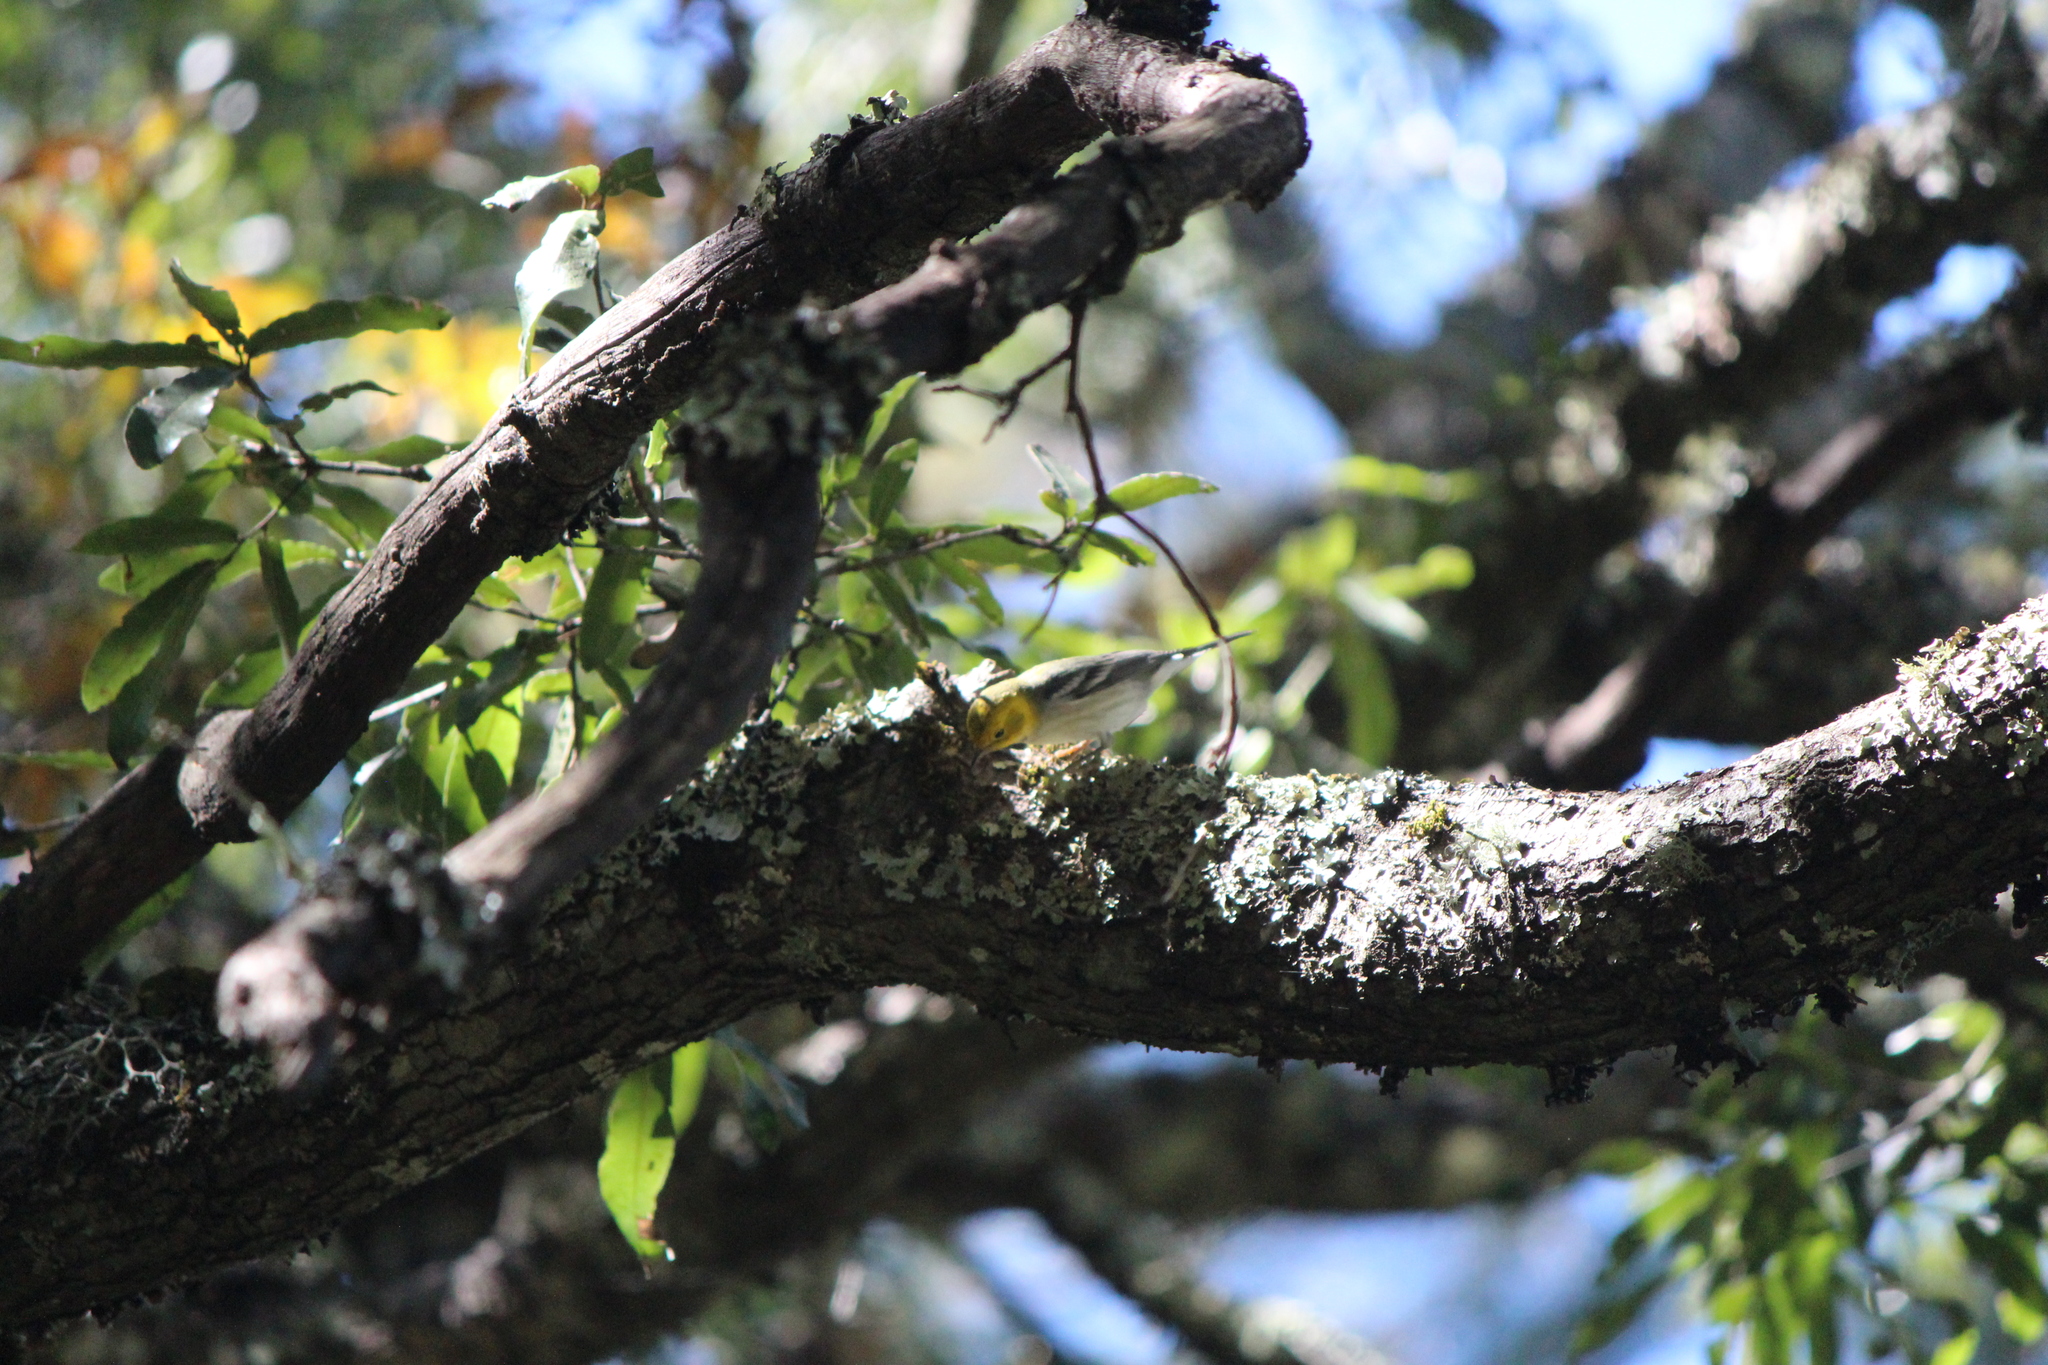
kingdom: Animalia
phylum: Chordata
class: Aves
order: Passeriformes
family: Parulidae
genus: Setophaga
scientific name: Setophaga occidentalis
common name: Hermit warbler
